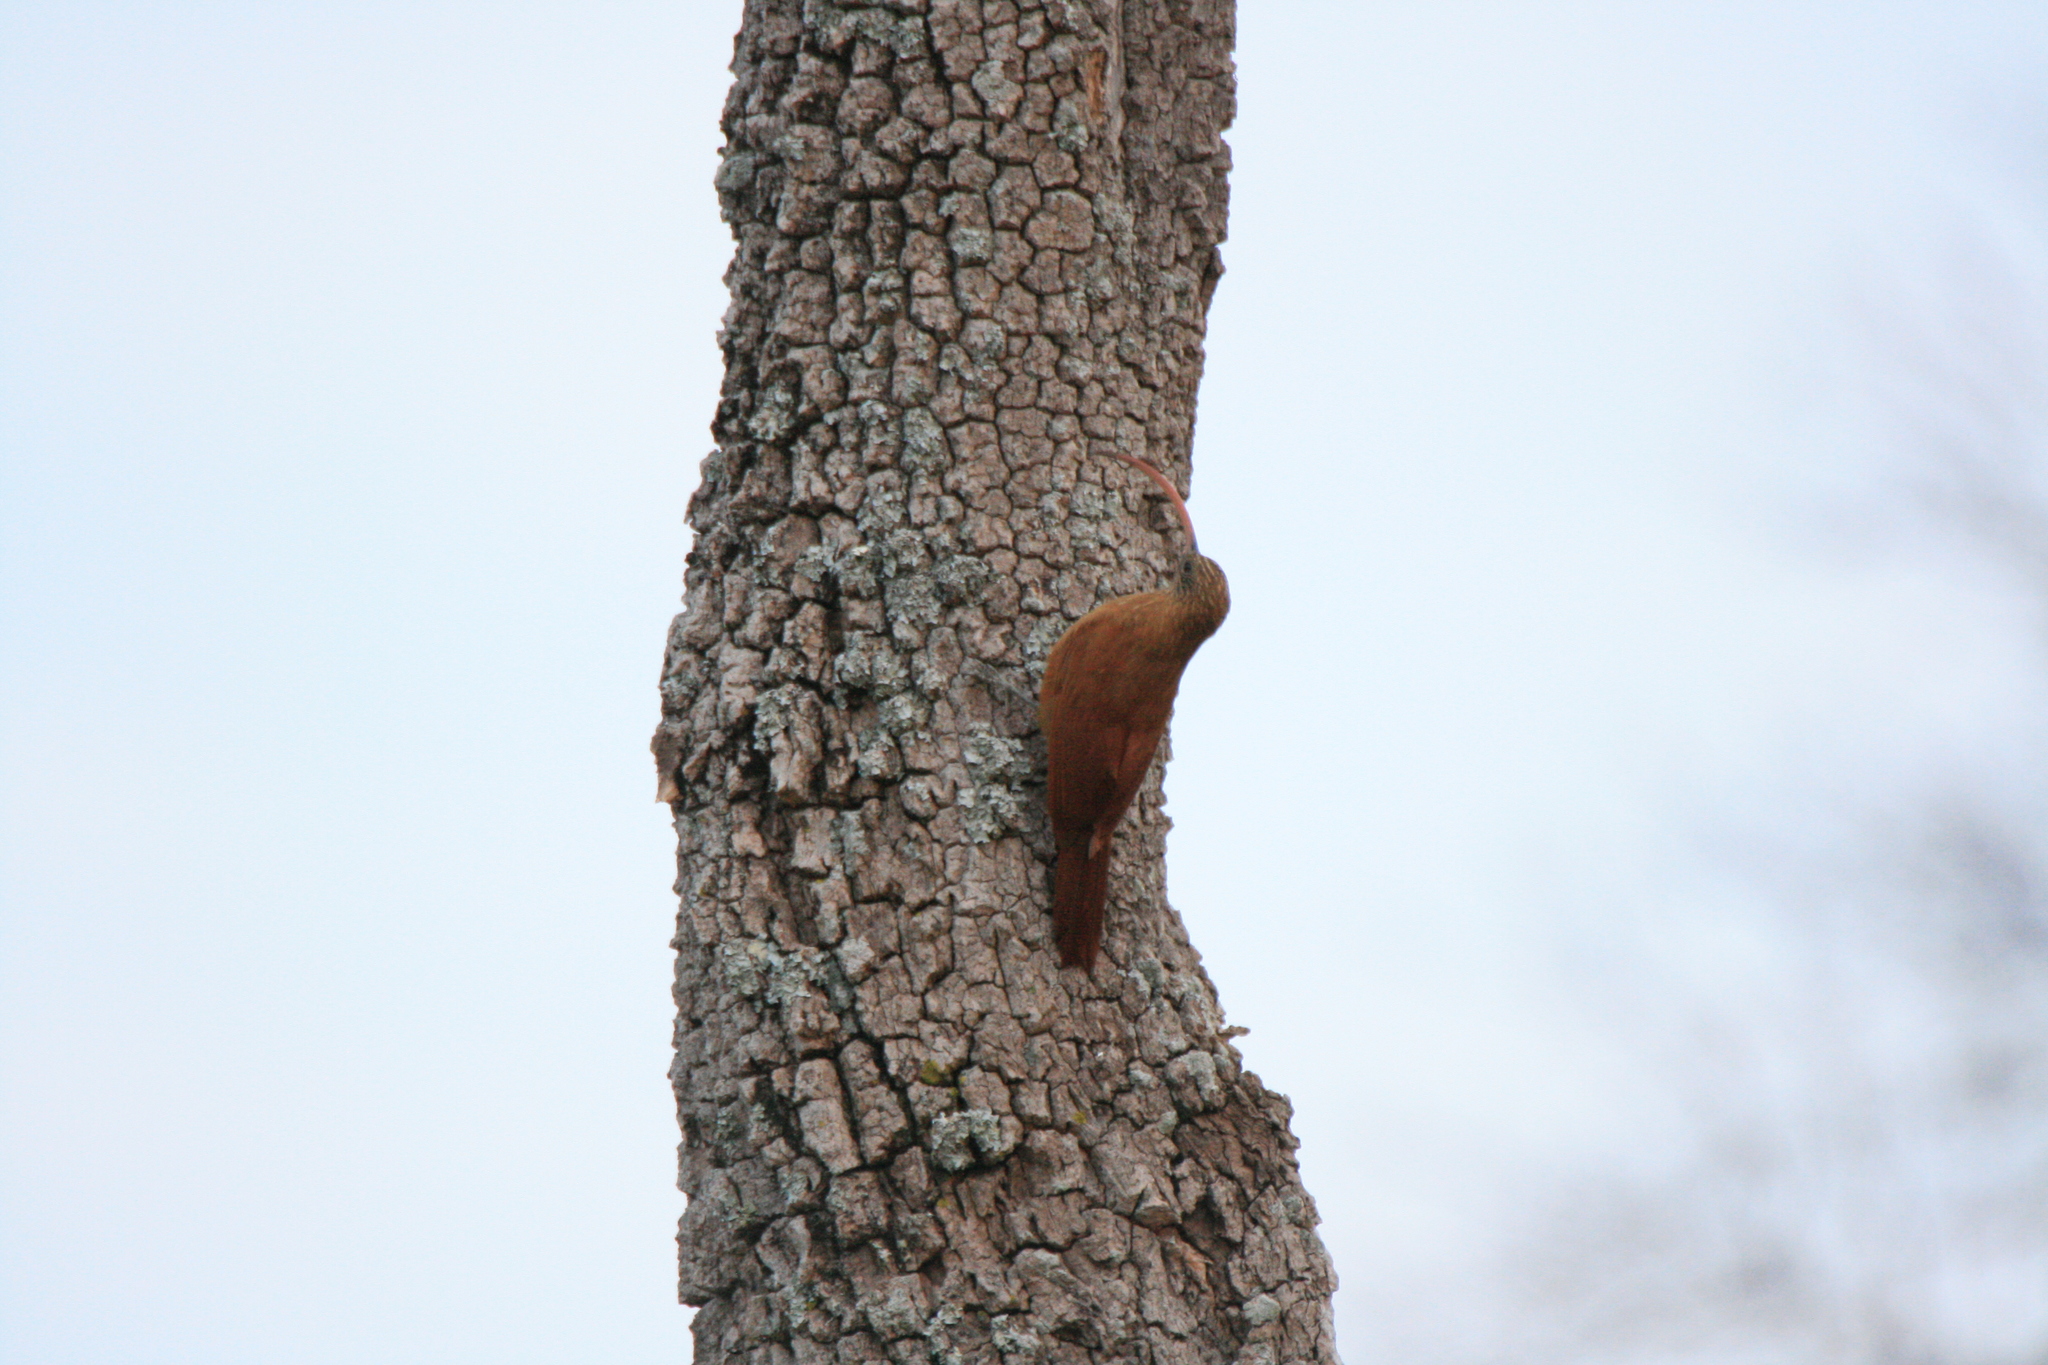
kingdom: Animalia
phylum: Chordata
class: Aves
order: Passeriformes
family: Furnariidae
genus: Campylorhamphus
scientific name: Campylorhamphus trochilirostris
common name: Red-billed scythebill
